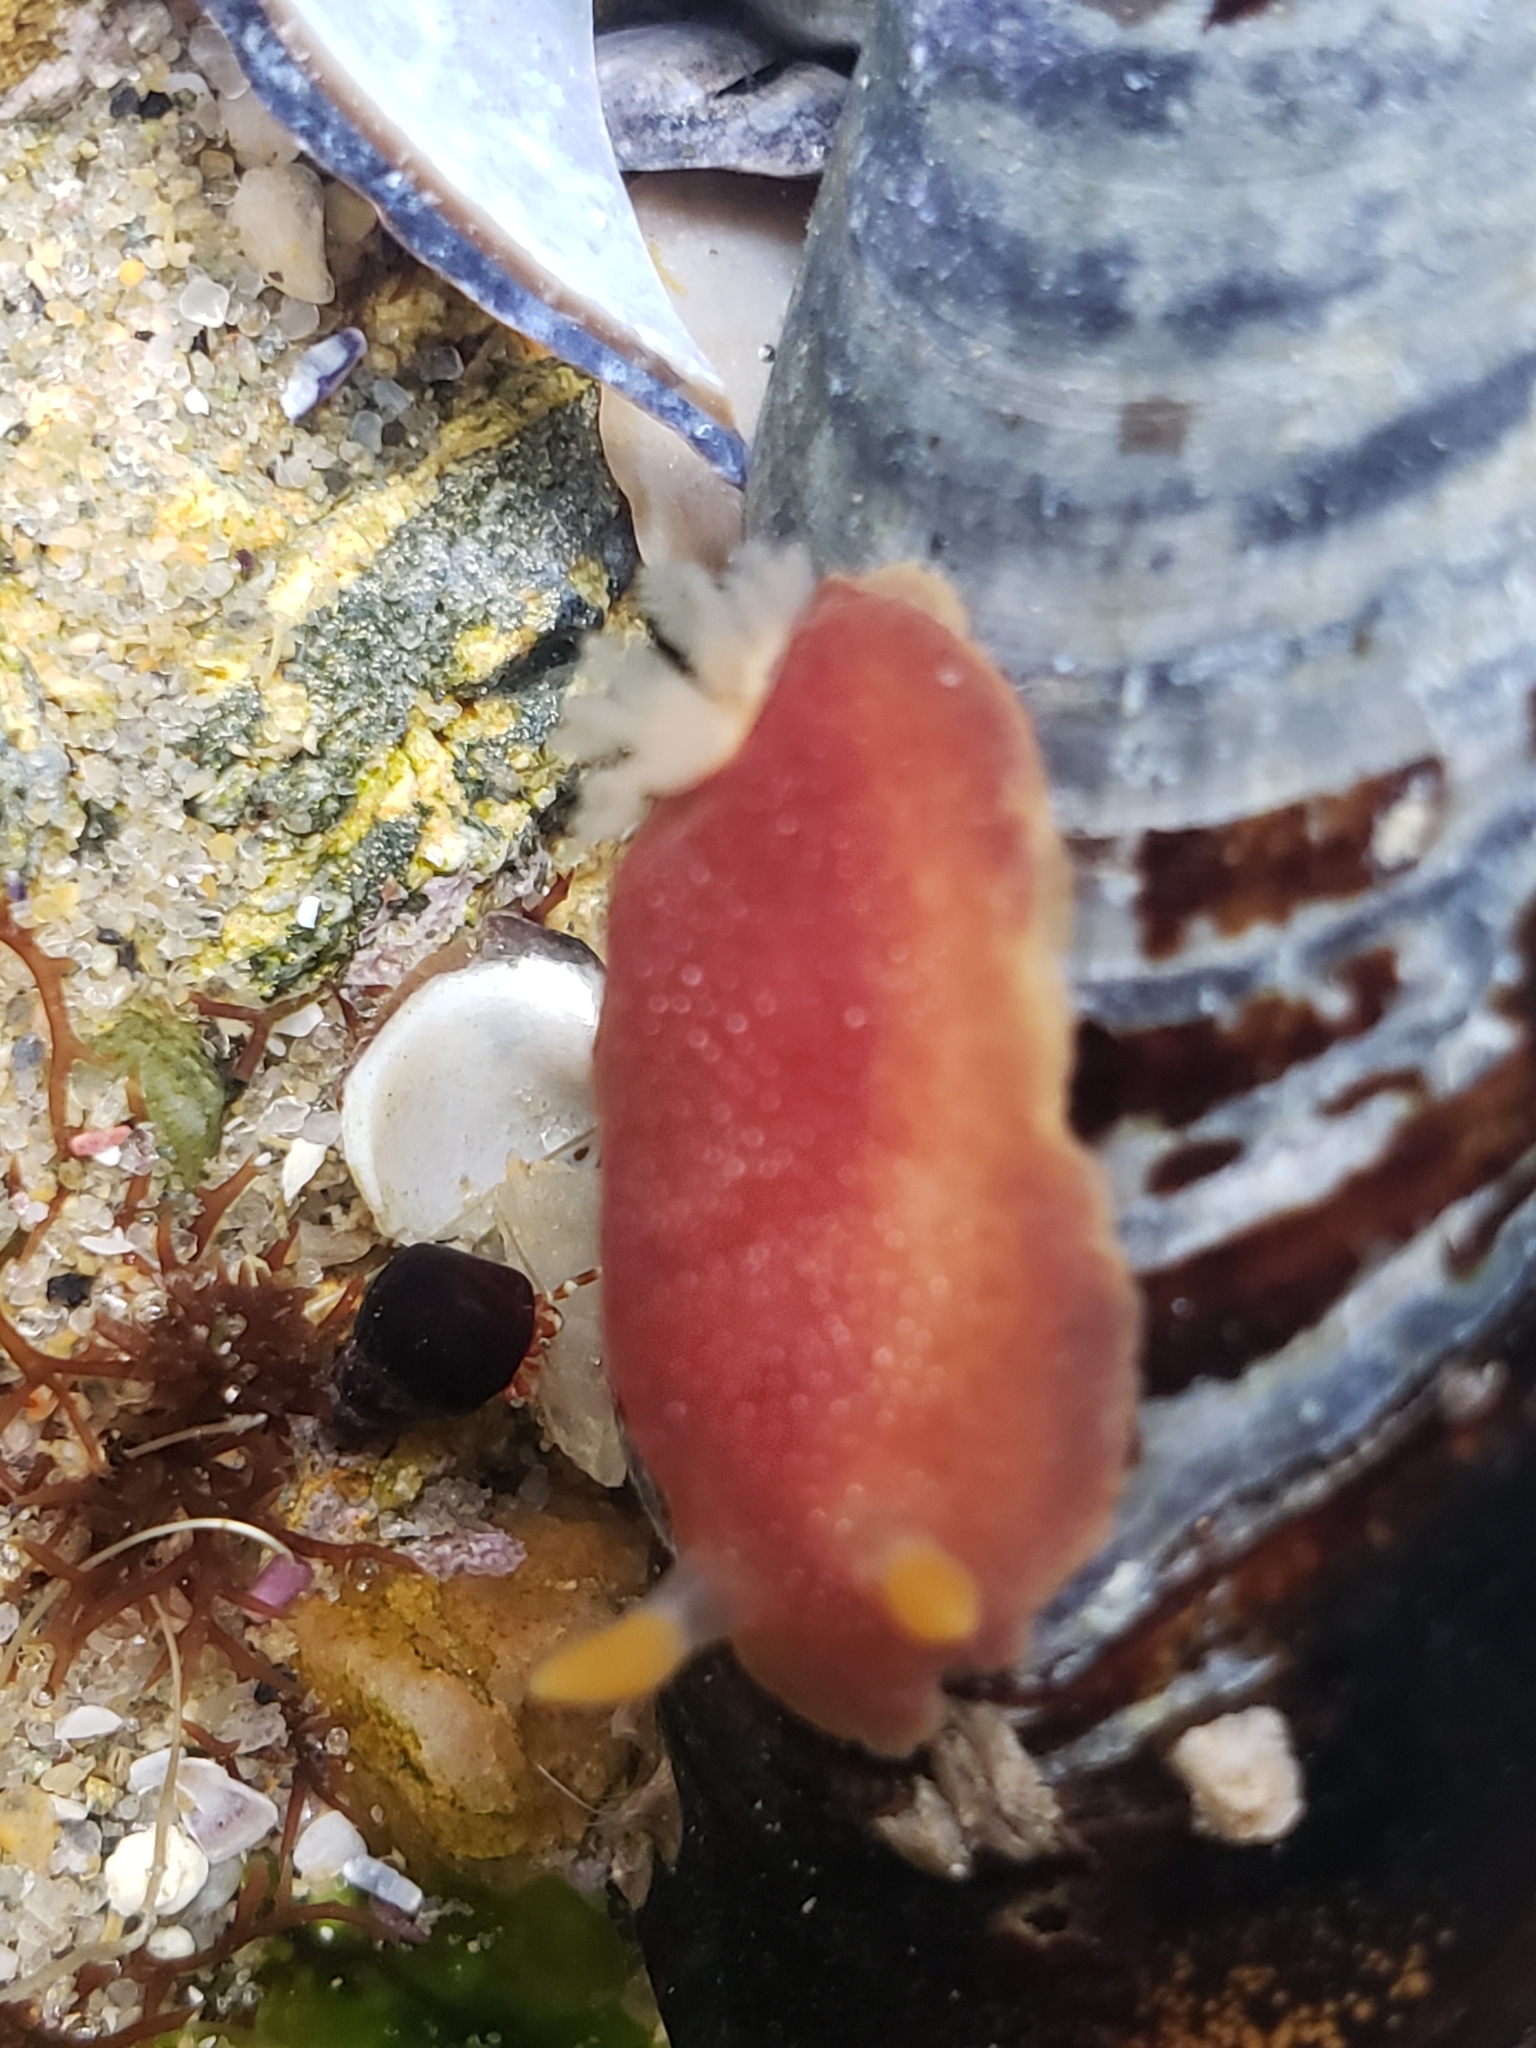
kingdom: Animalia
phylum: Mollusca
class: Gastropoda
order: Nudibranchia
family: Dendrodorididae
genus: Doriopsilla
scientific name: Doriopsilla albopunctata
